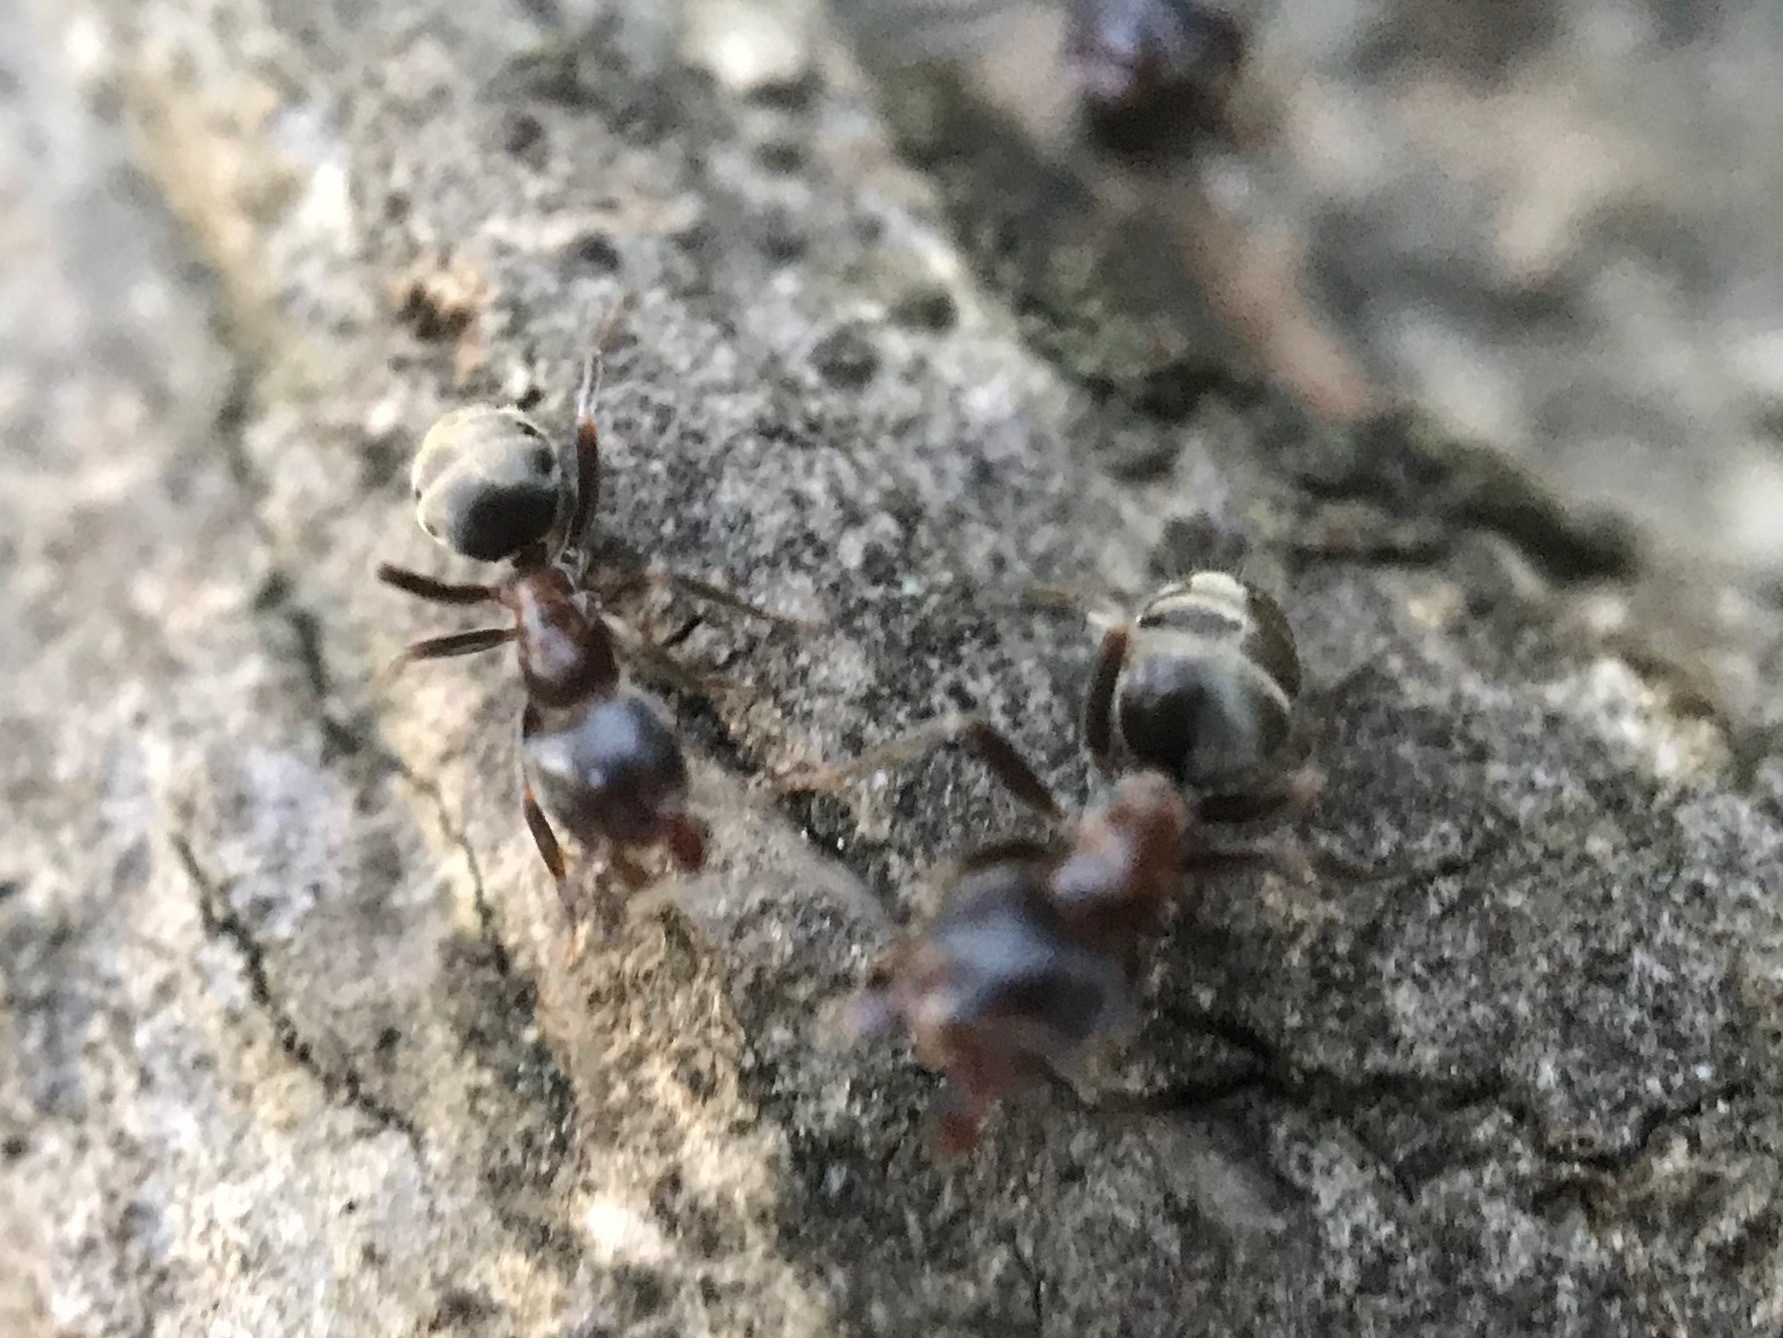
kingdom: Animalia
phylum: Arthropoda
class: Insecta
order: Hymenoptera
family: Formicidae
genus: Liometopum
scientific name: Liometopum occidentale
